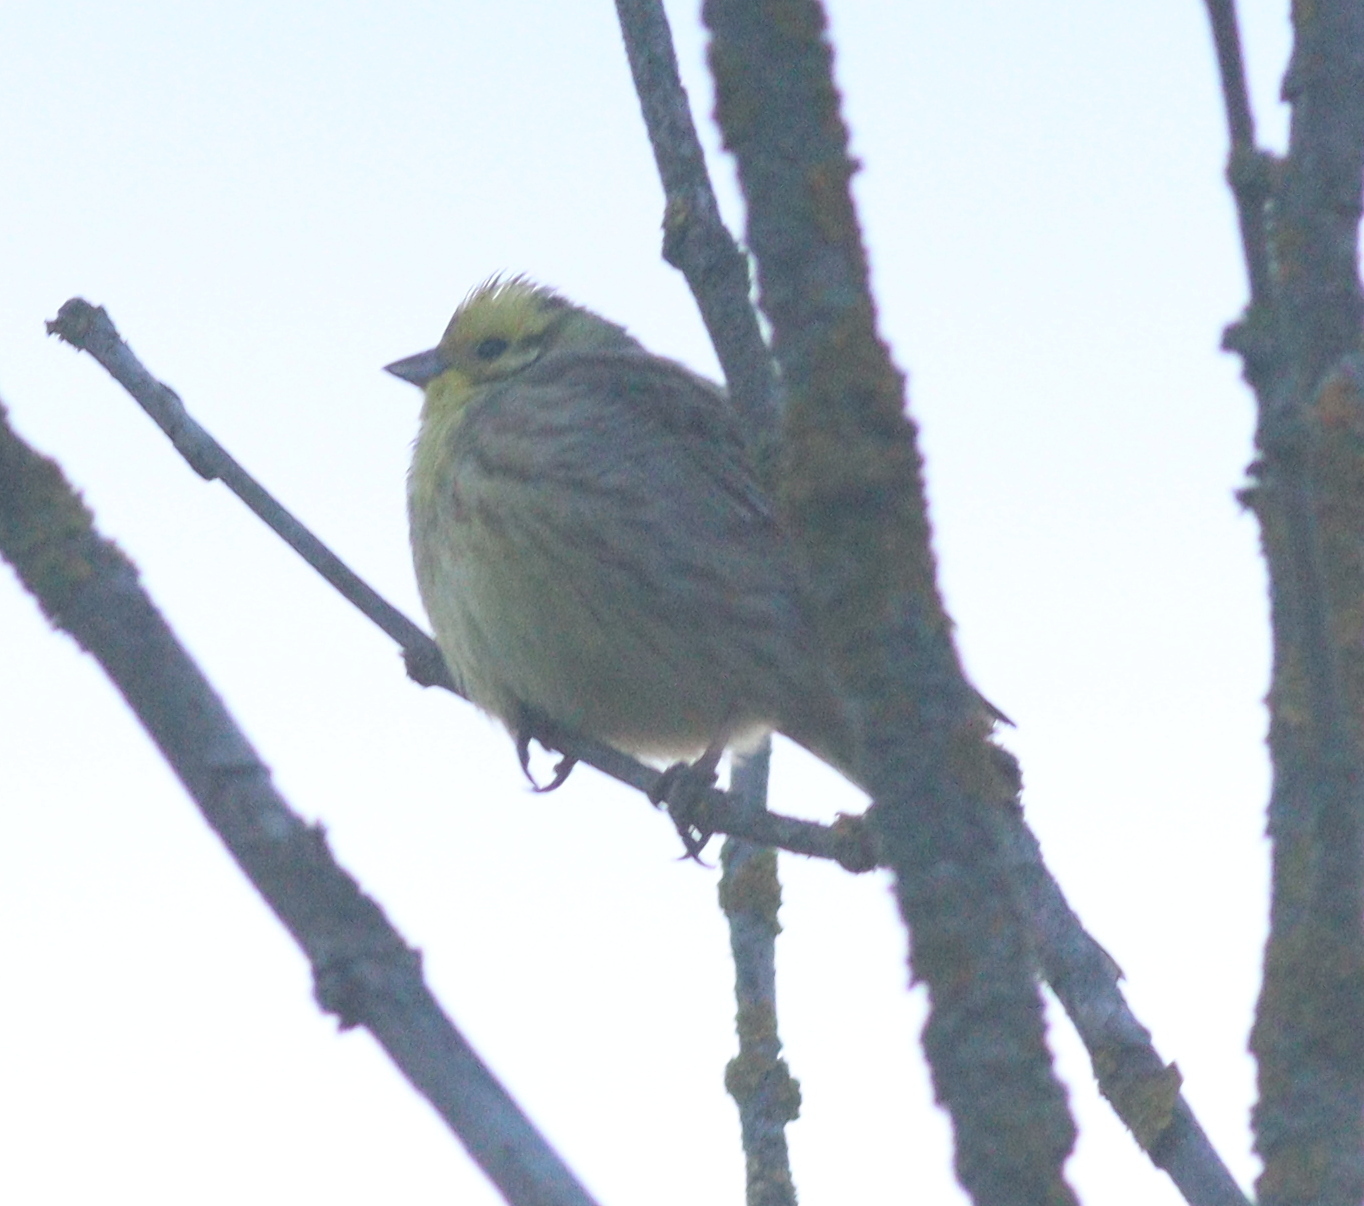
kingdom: Animalia
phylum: Chordata
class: Aves
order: Passeriformes
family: Emberizidae
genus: Emberiza
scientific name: Emberiza citrinella
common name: Yellowhammer
